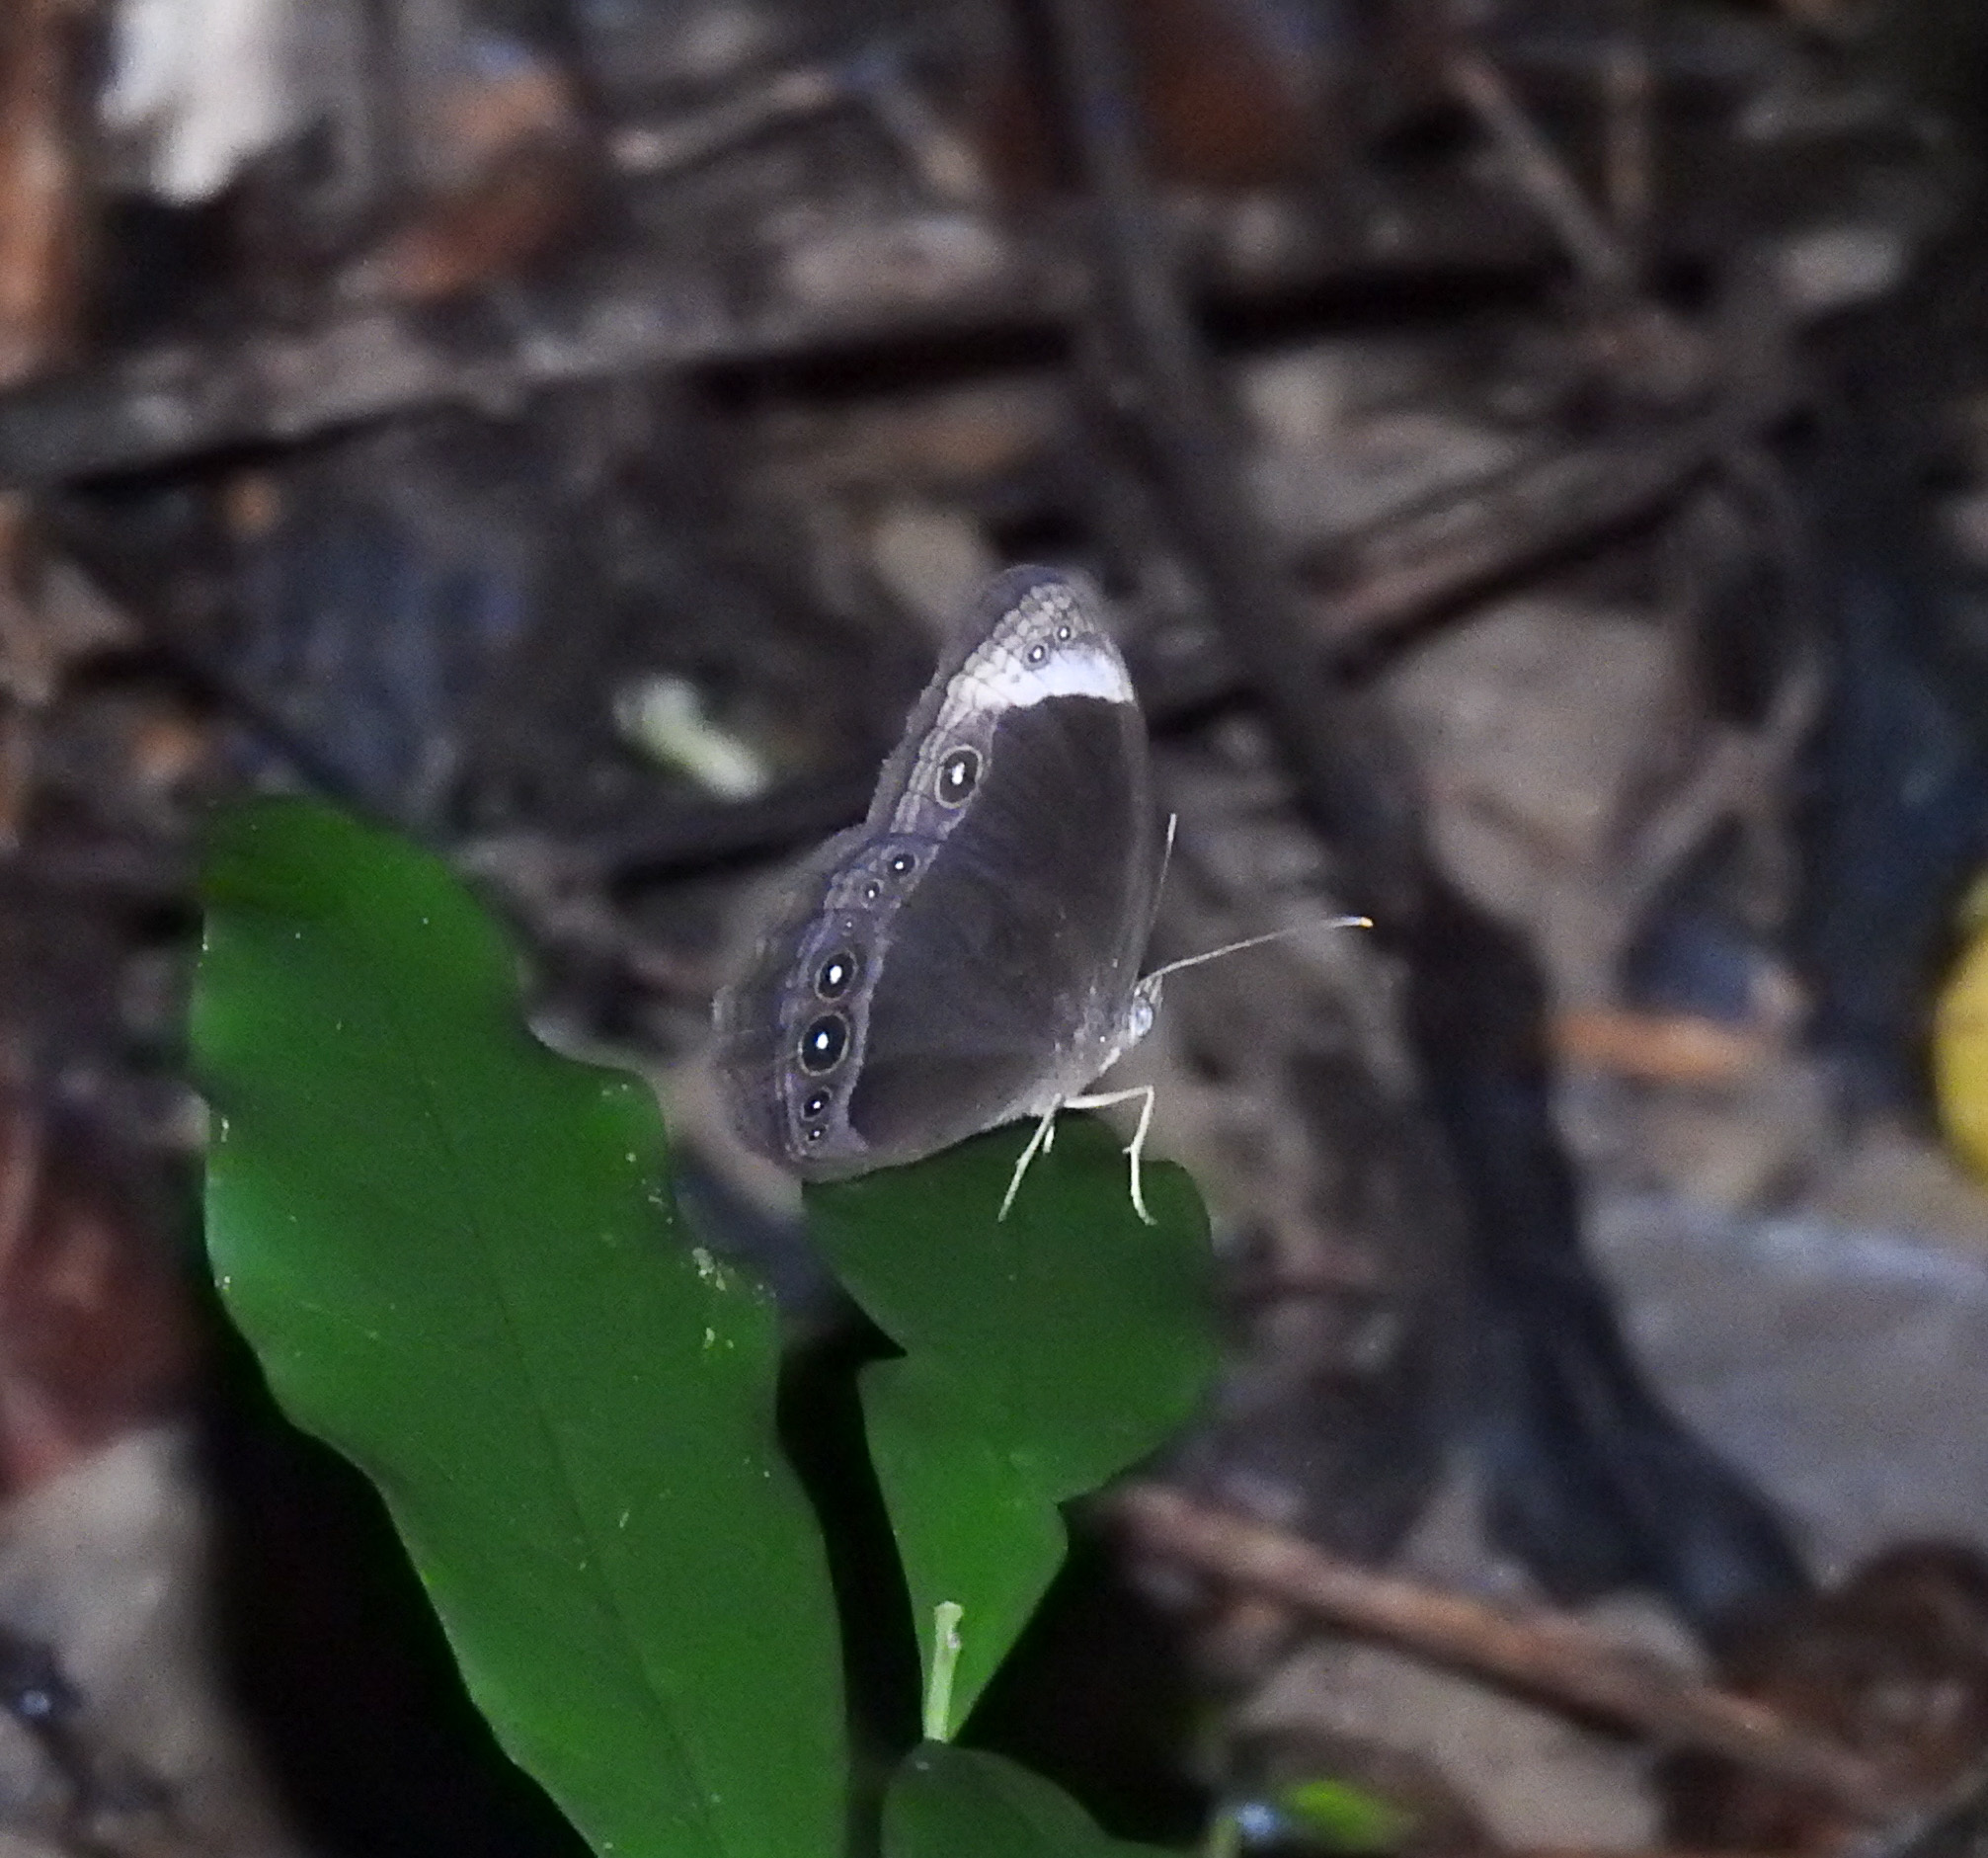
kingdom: Animalia
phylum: Arthropoda
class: Insecta
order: Lepidoptera
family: Nymphalidae
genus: Mycalesis
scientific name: Mycalesis anaxias
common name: White-bar bushbrown
